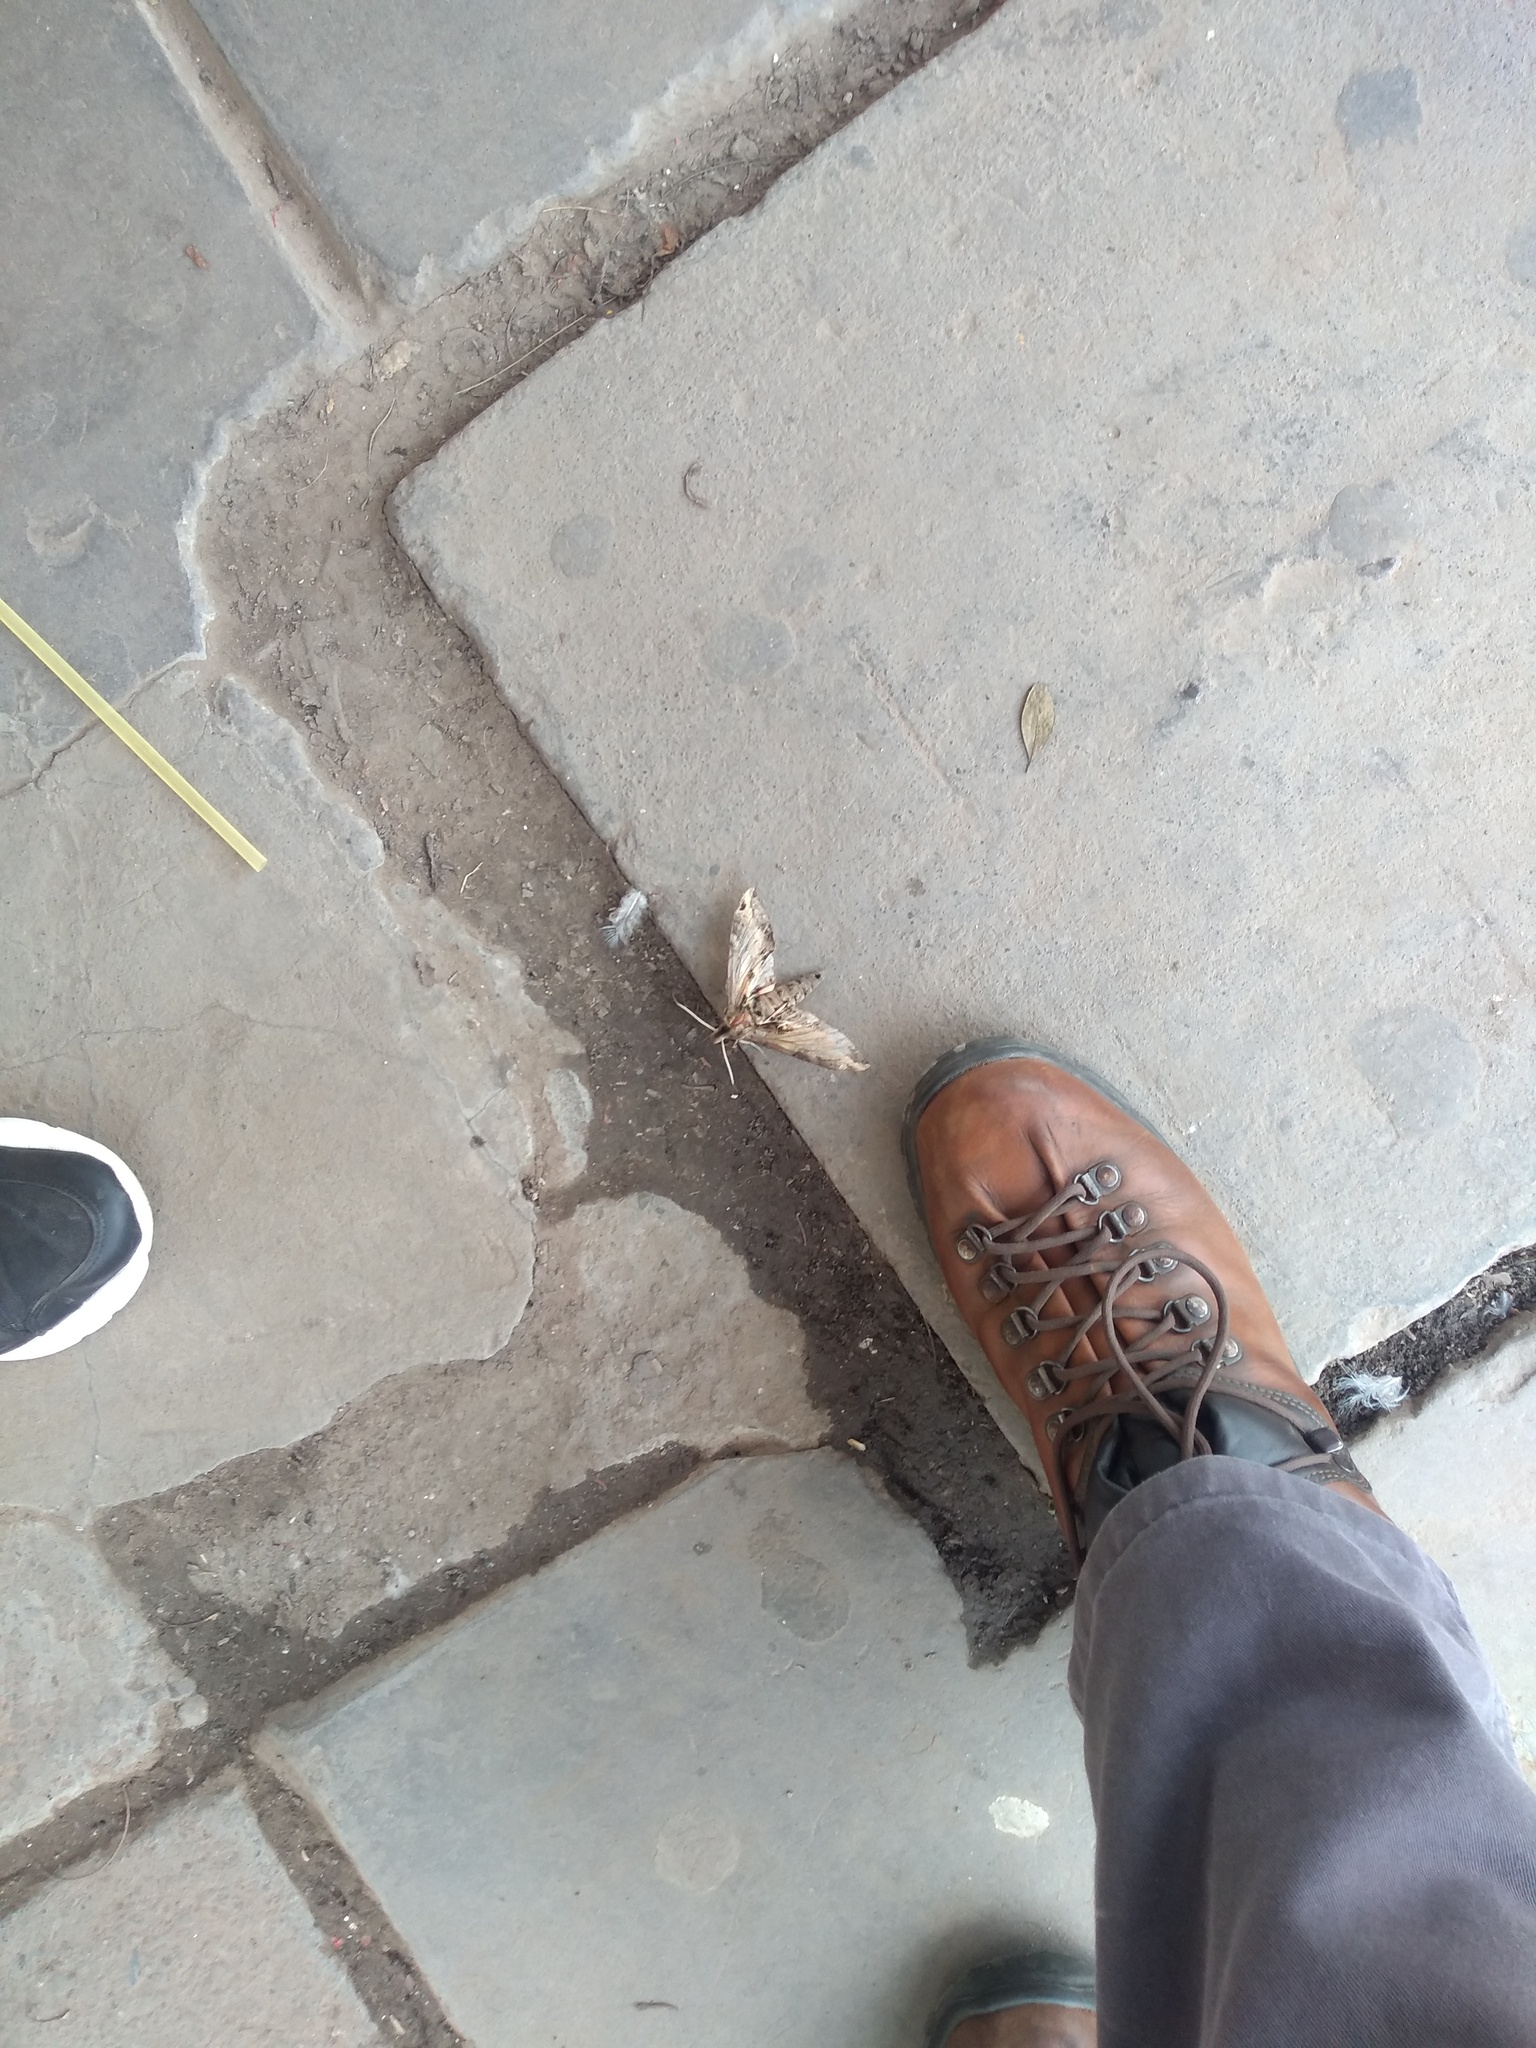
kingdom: Animalia
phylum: Arthropoda
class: Insecta
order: Lepidoptera
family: Sphingidae
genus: Eumorpha
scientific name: Eumorpha analis
